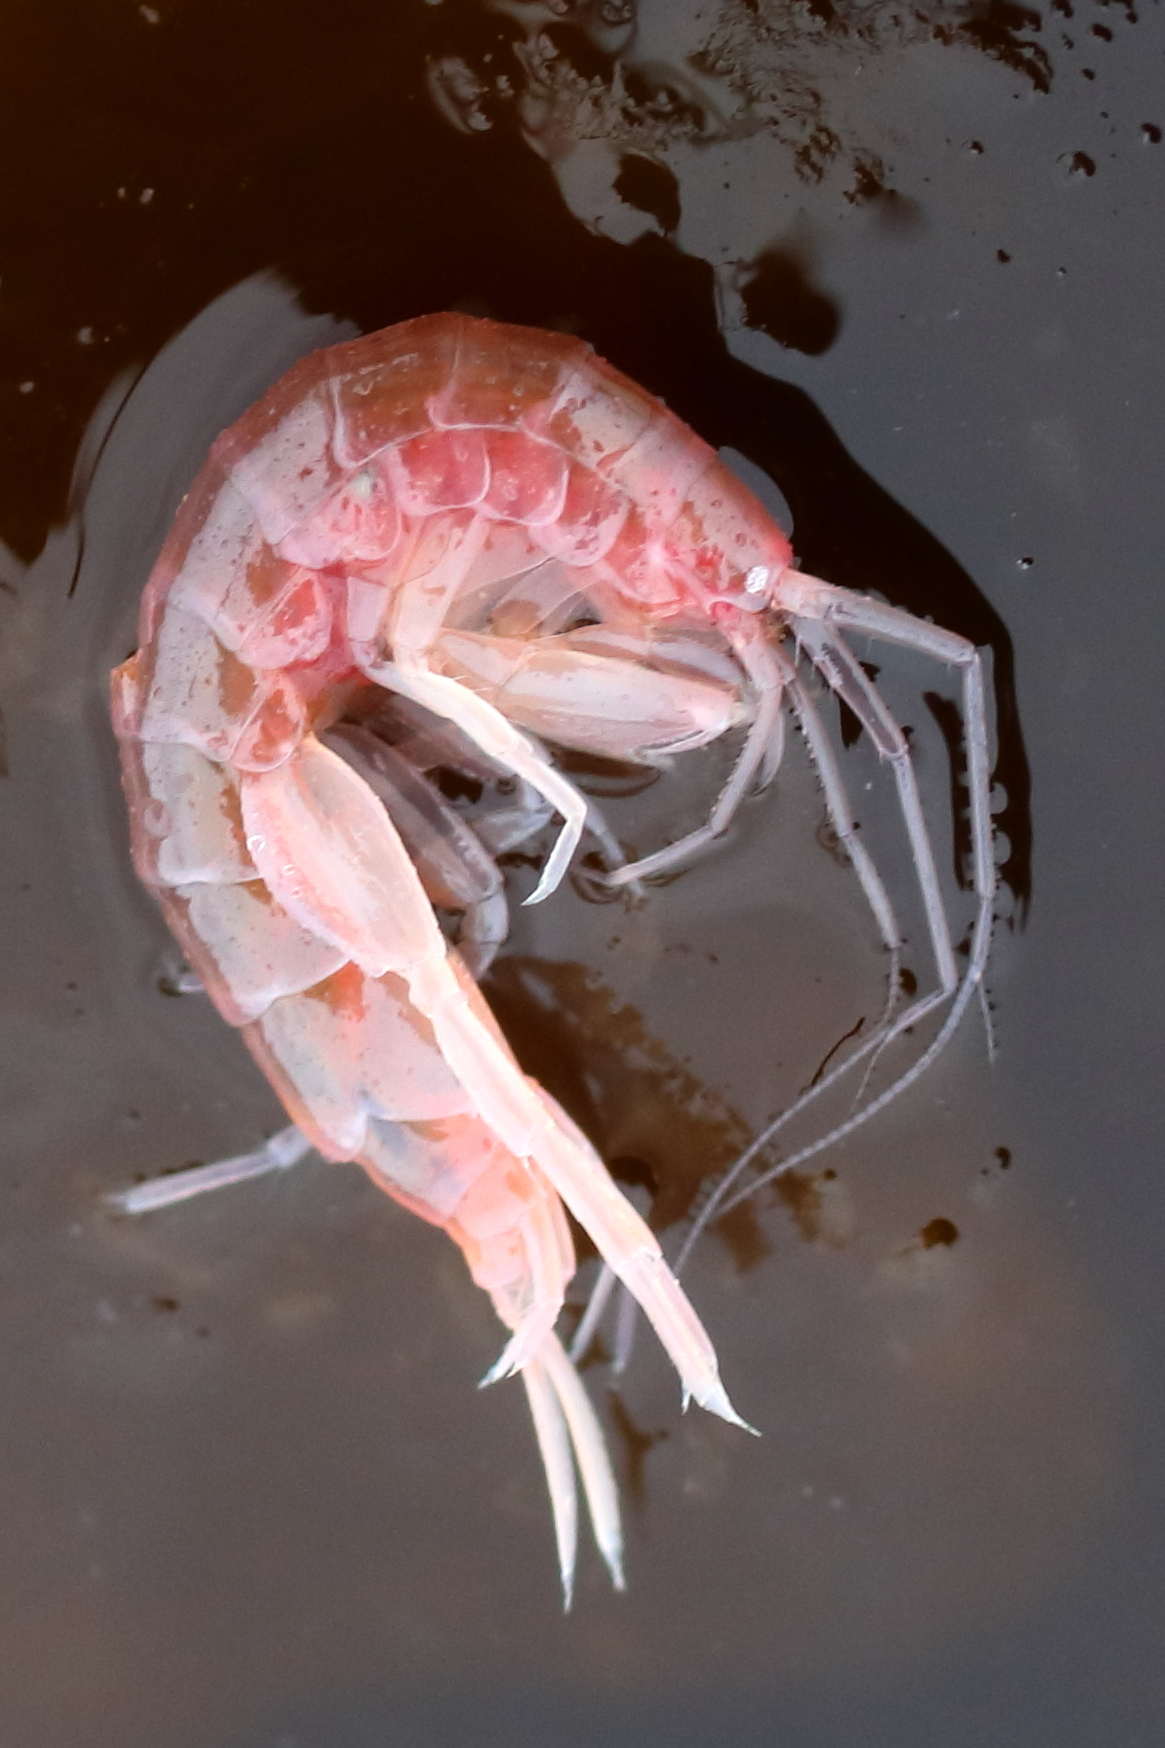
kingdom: Animalia
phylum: Arthropoda
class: Malacostraca
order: Amphipoda
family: Maeridae
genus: Maera
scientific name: Maera danae
